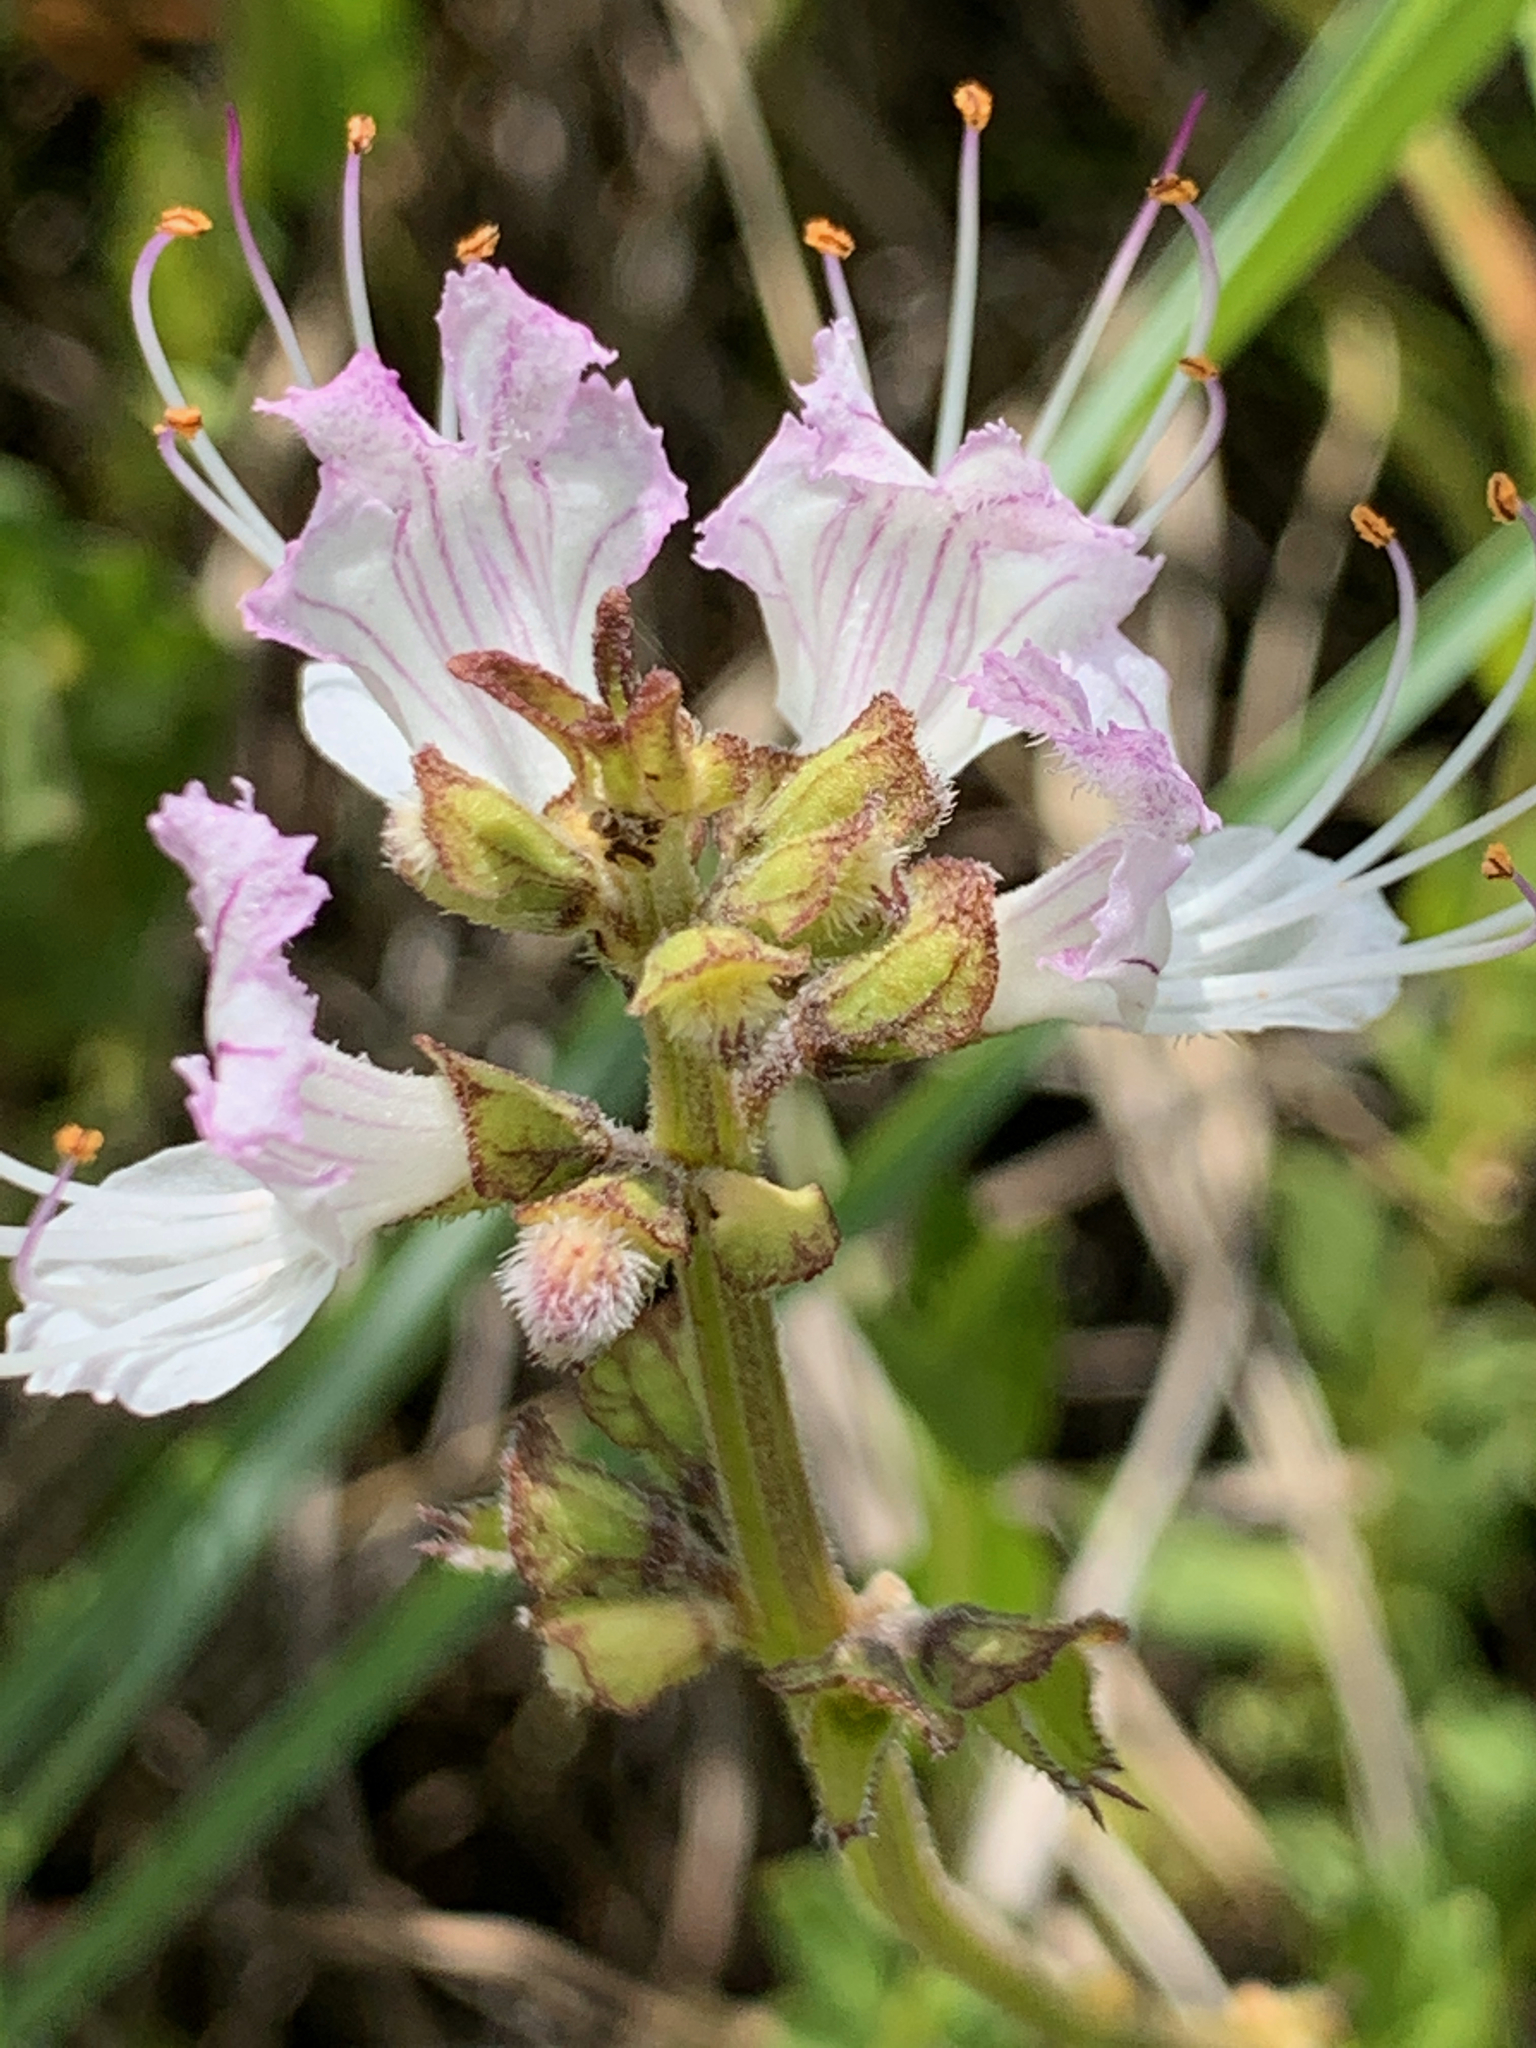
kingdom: Plantae
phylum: Tracheophyta
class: Magnoliopsida
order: Lamiales
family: Lamiaceae
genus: Ocimum
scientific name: Ocimum obovatum
